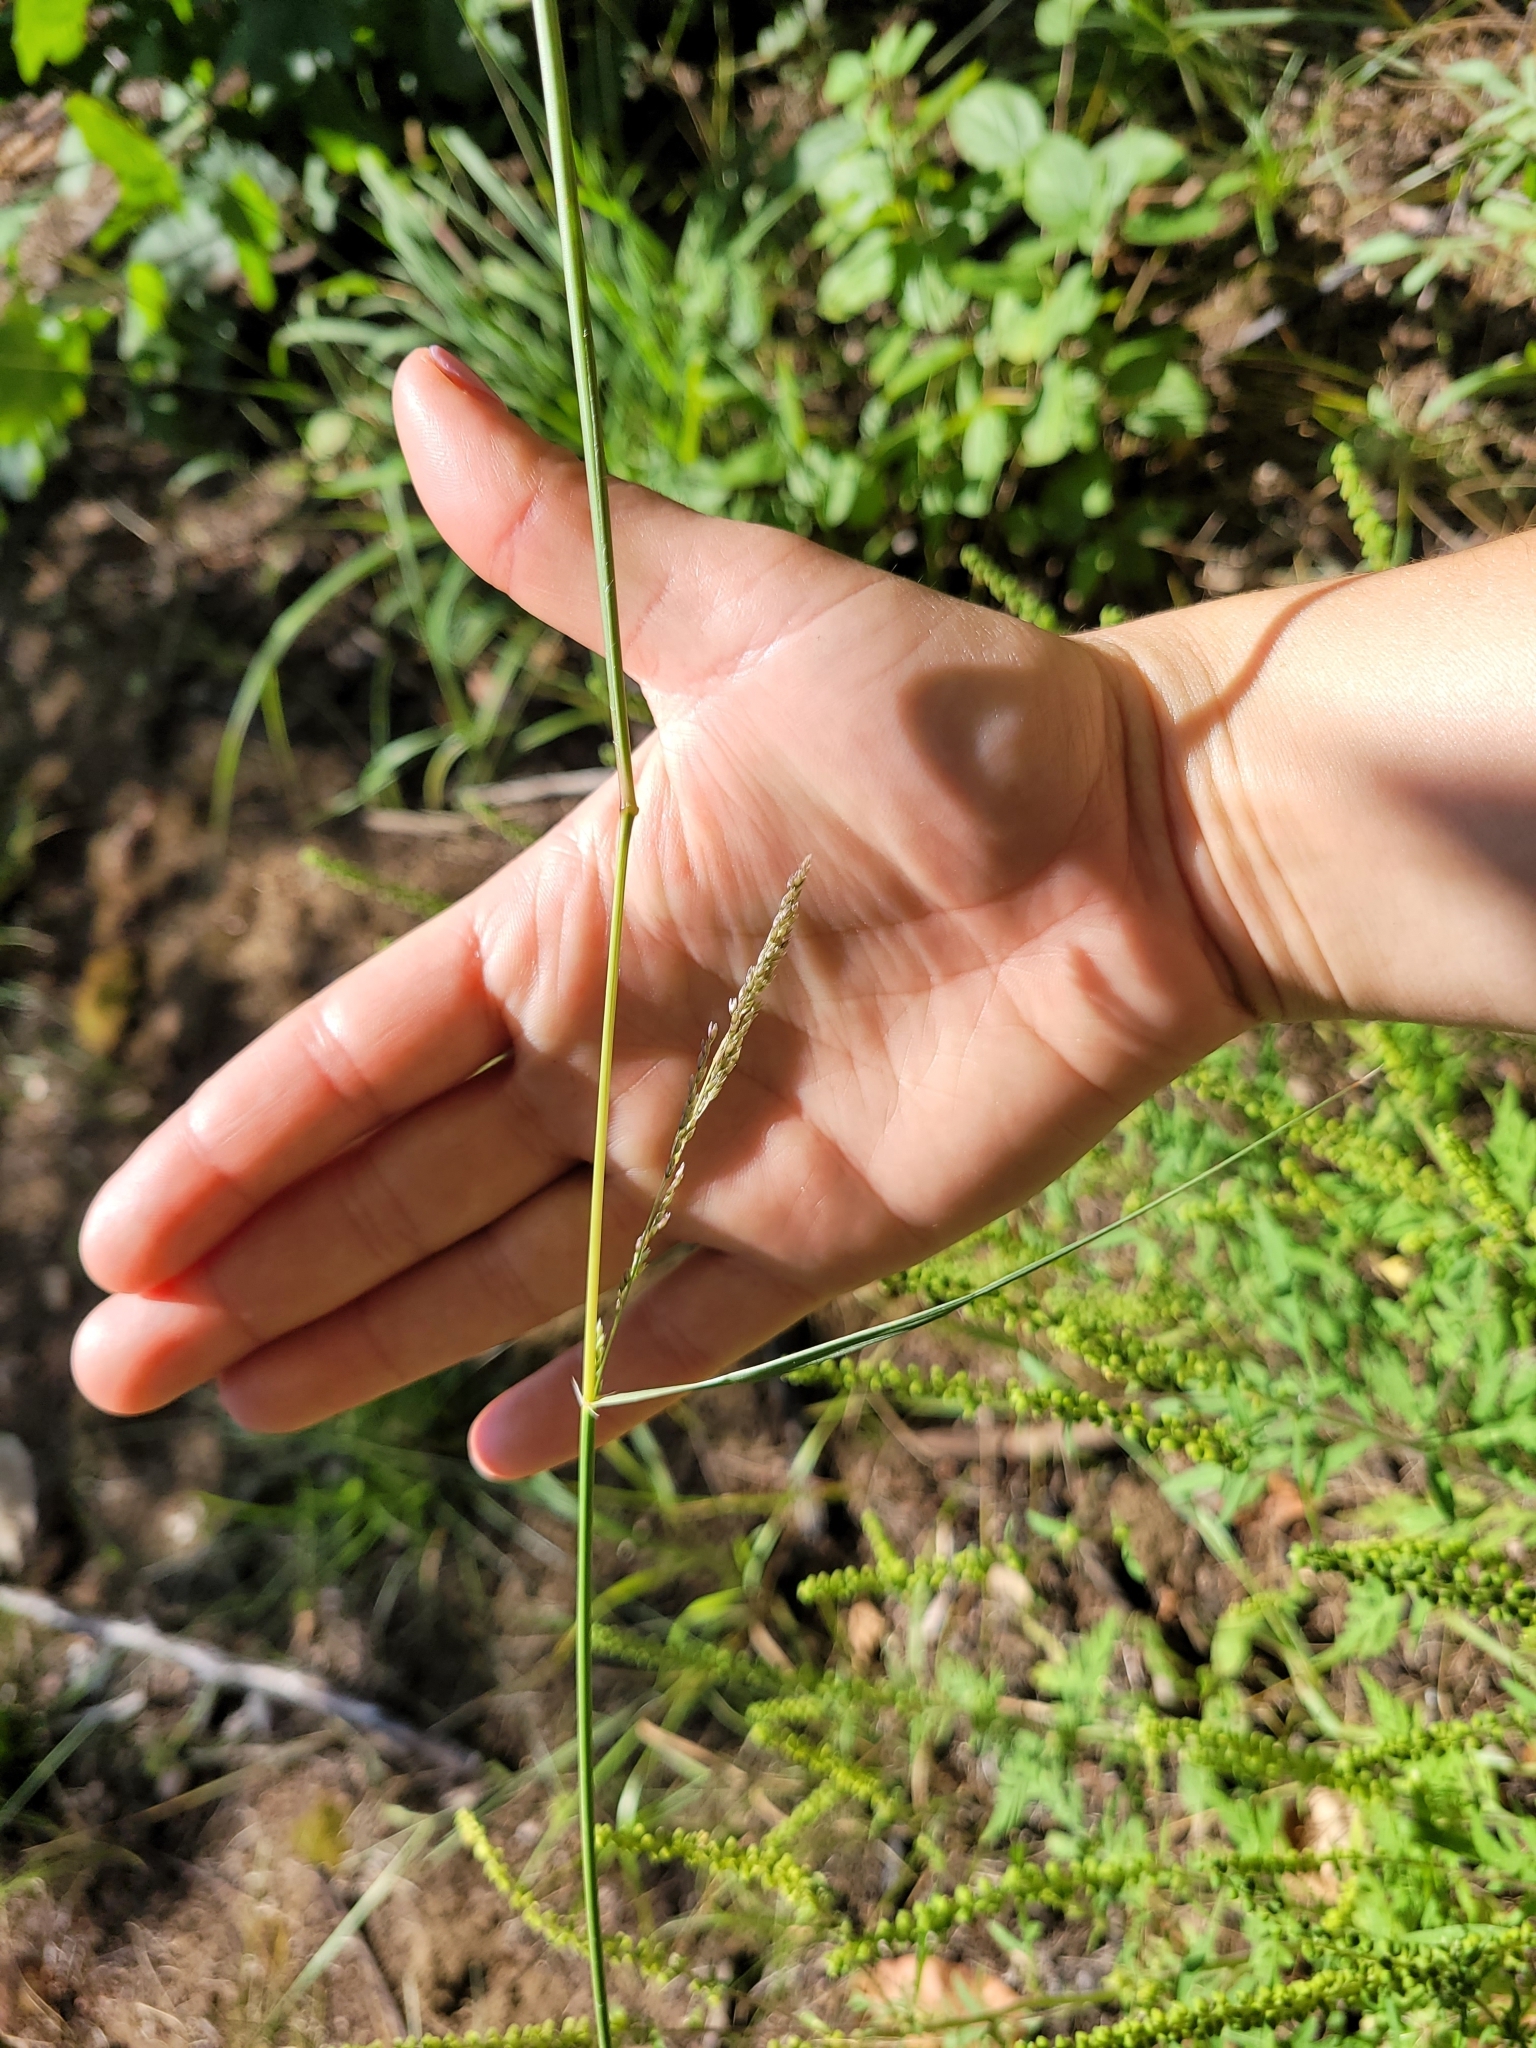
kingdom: Plantae
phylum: Tracheophyta
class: Liliopsida
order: Poales
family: Poaceae
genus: Sporobolus
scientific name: Sporobolus cryptandrus
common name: Sand dropseed
